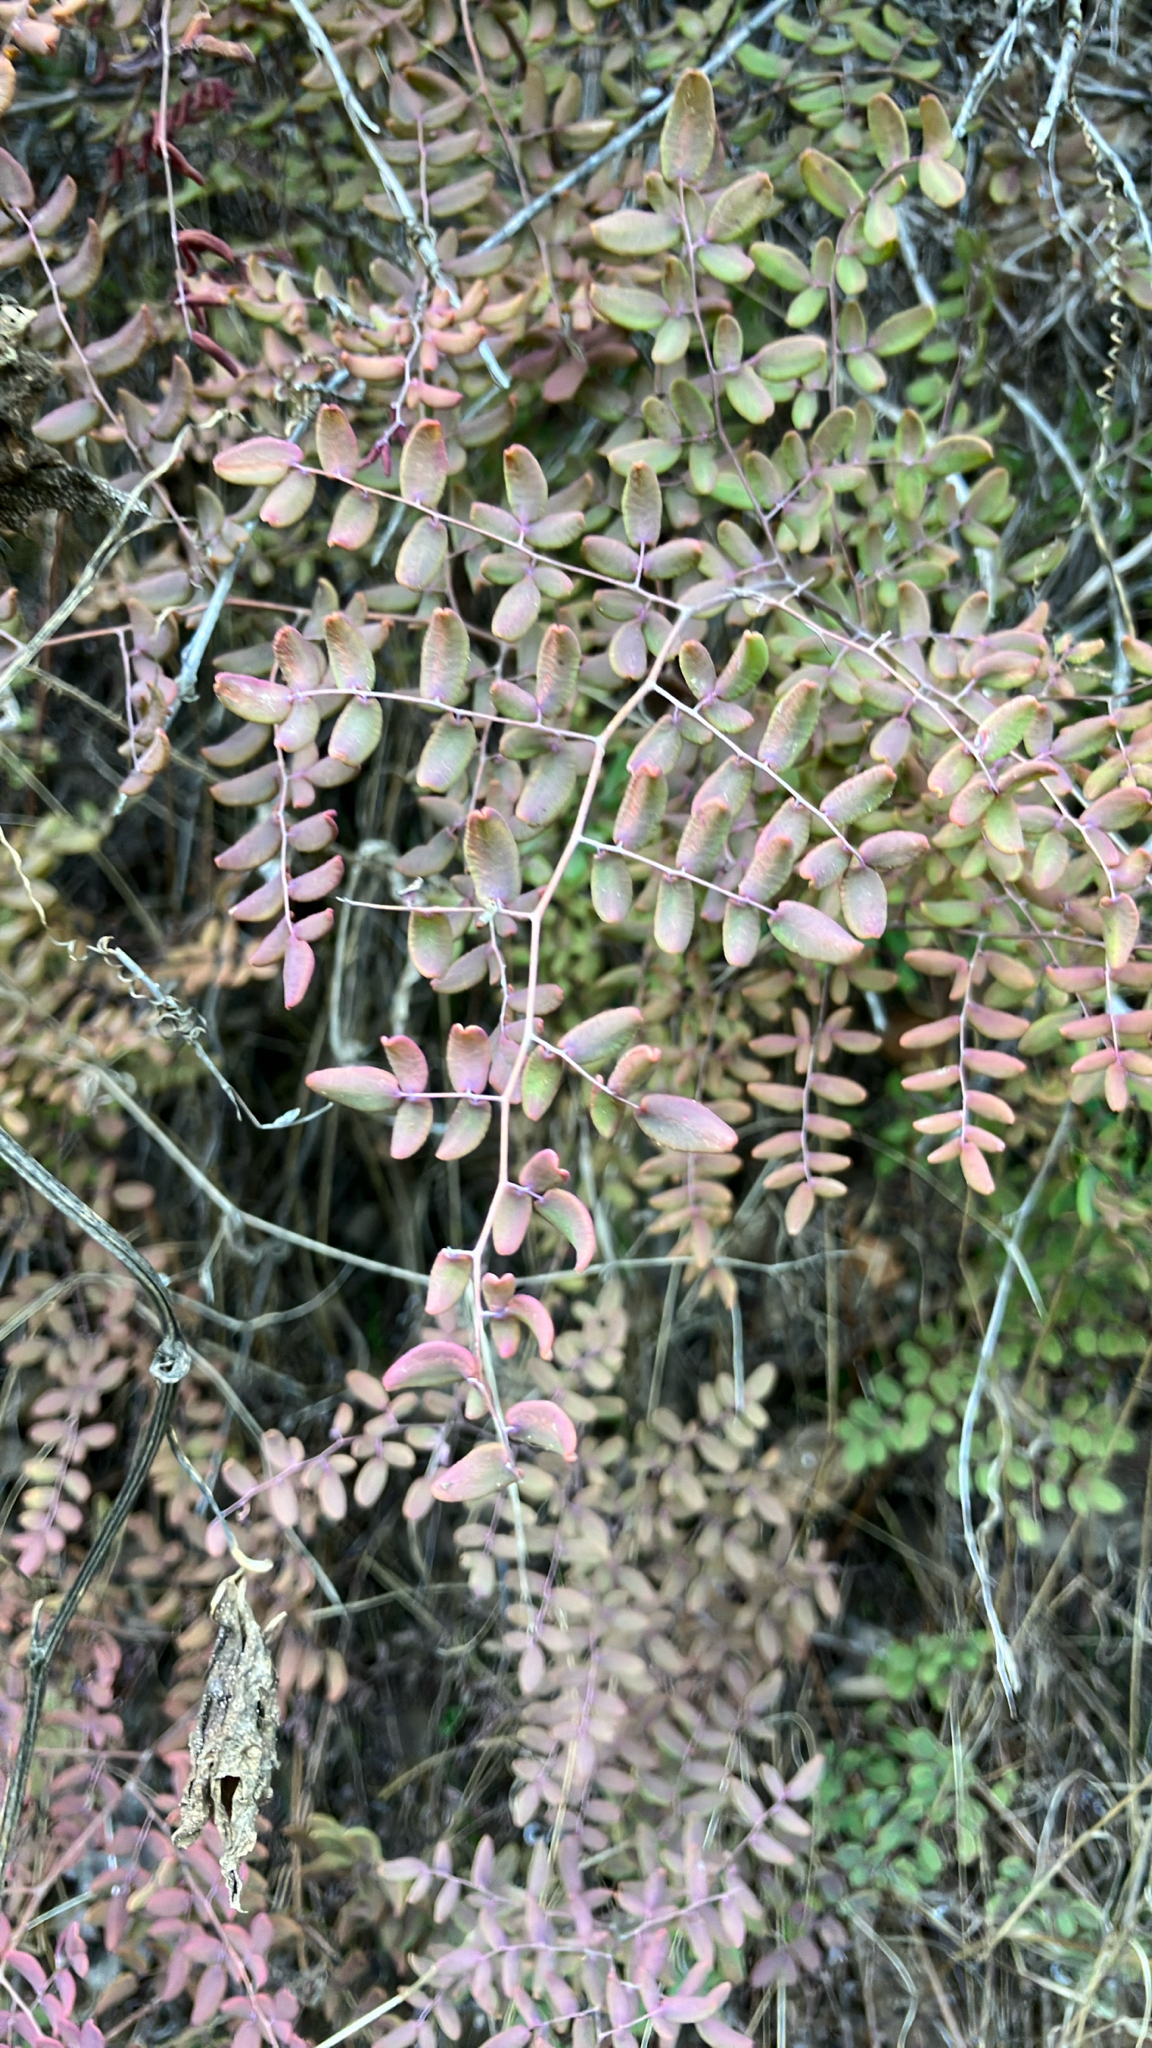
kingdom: Plantae
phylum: Tracheophyta
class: Polypodiopsida
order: Polypodiales
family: Pteridaceae
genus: Pellaea
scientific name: Pellaea andromedifolia
